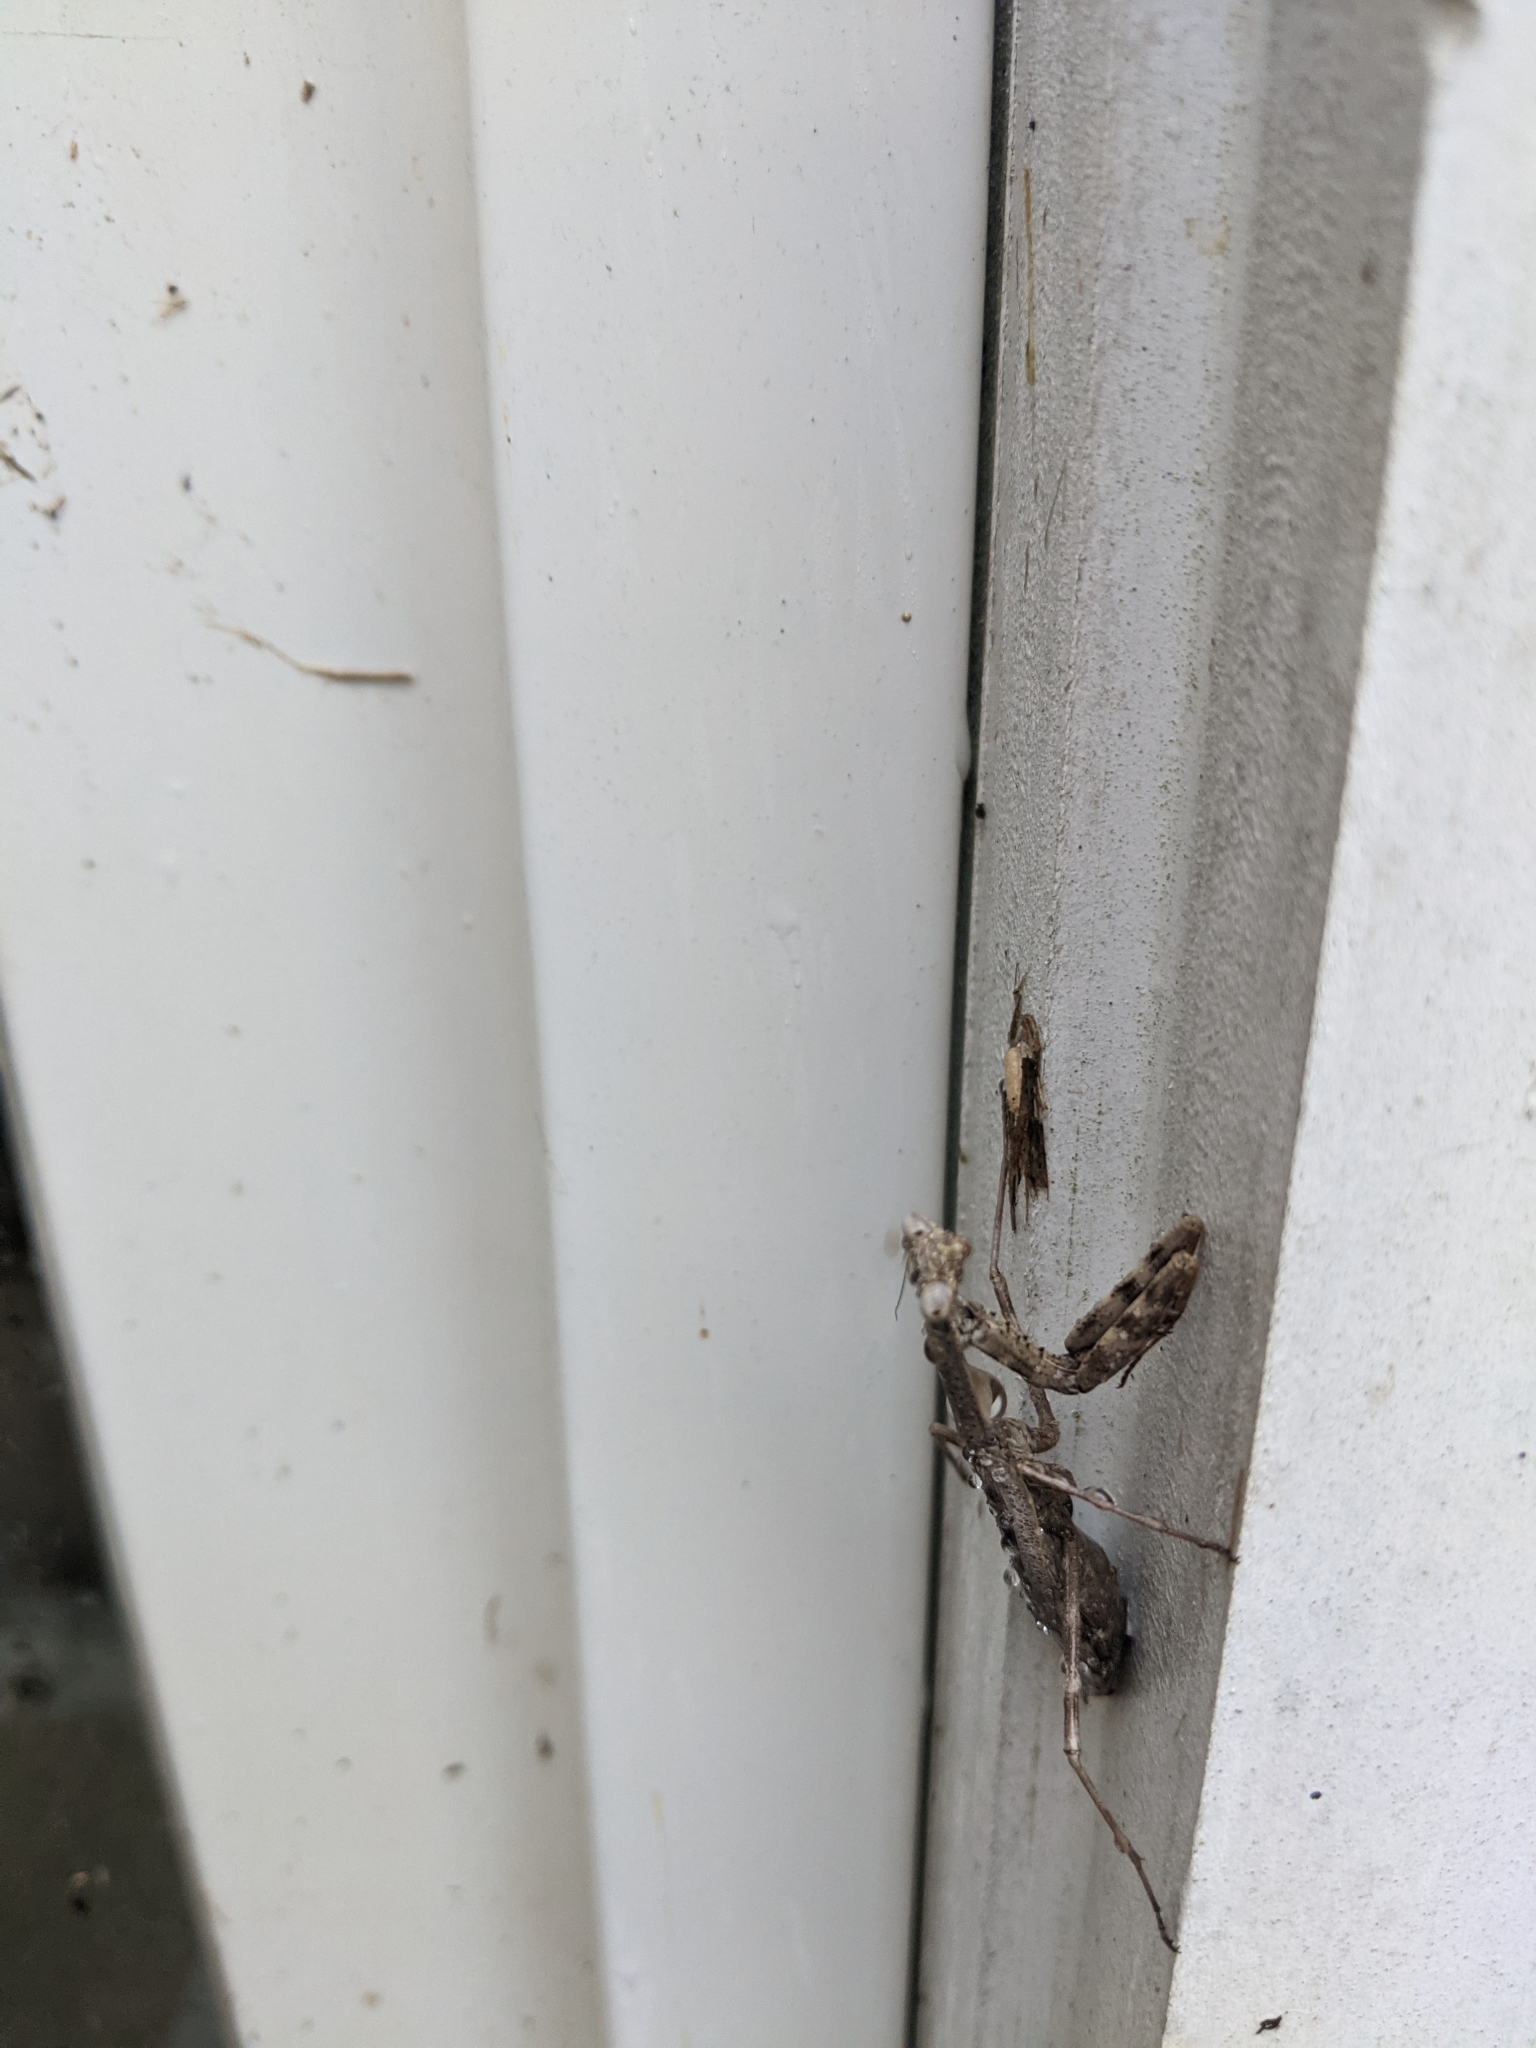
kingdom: Animalia
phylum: Arthropoda
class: Insecta
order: Mantodea
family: Mantidae
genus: Stagmomantis
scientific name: Stagmomantis carolina
